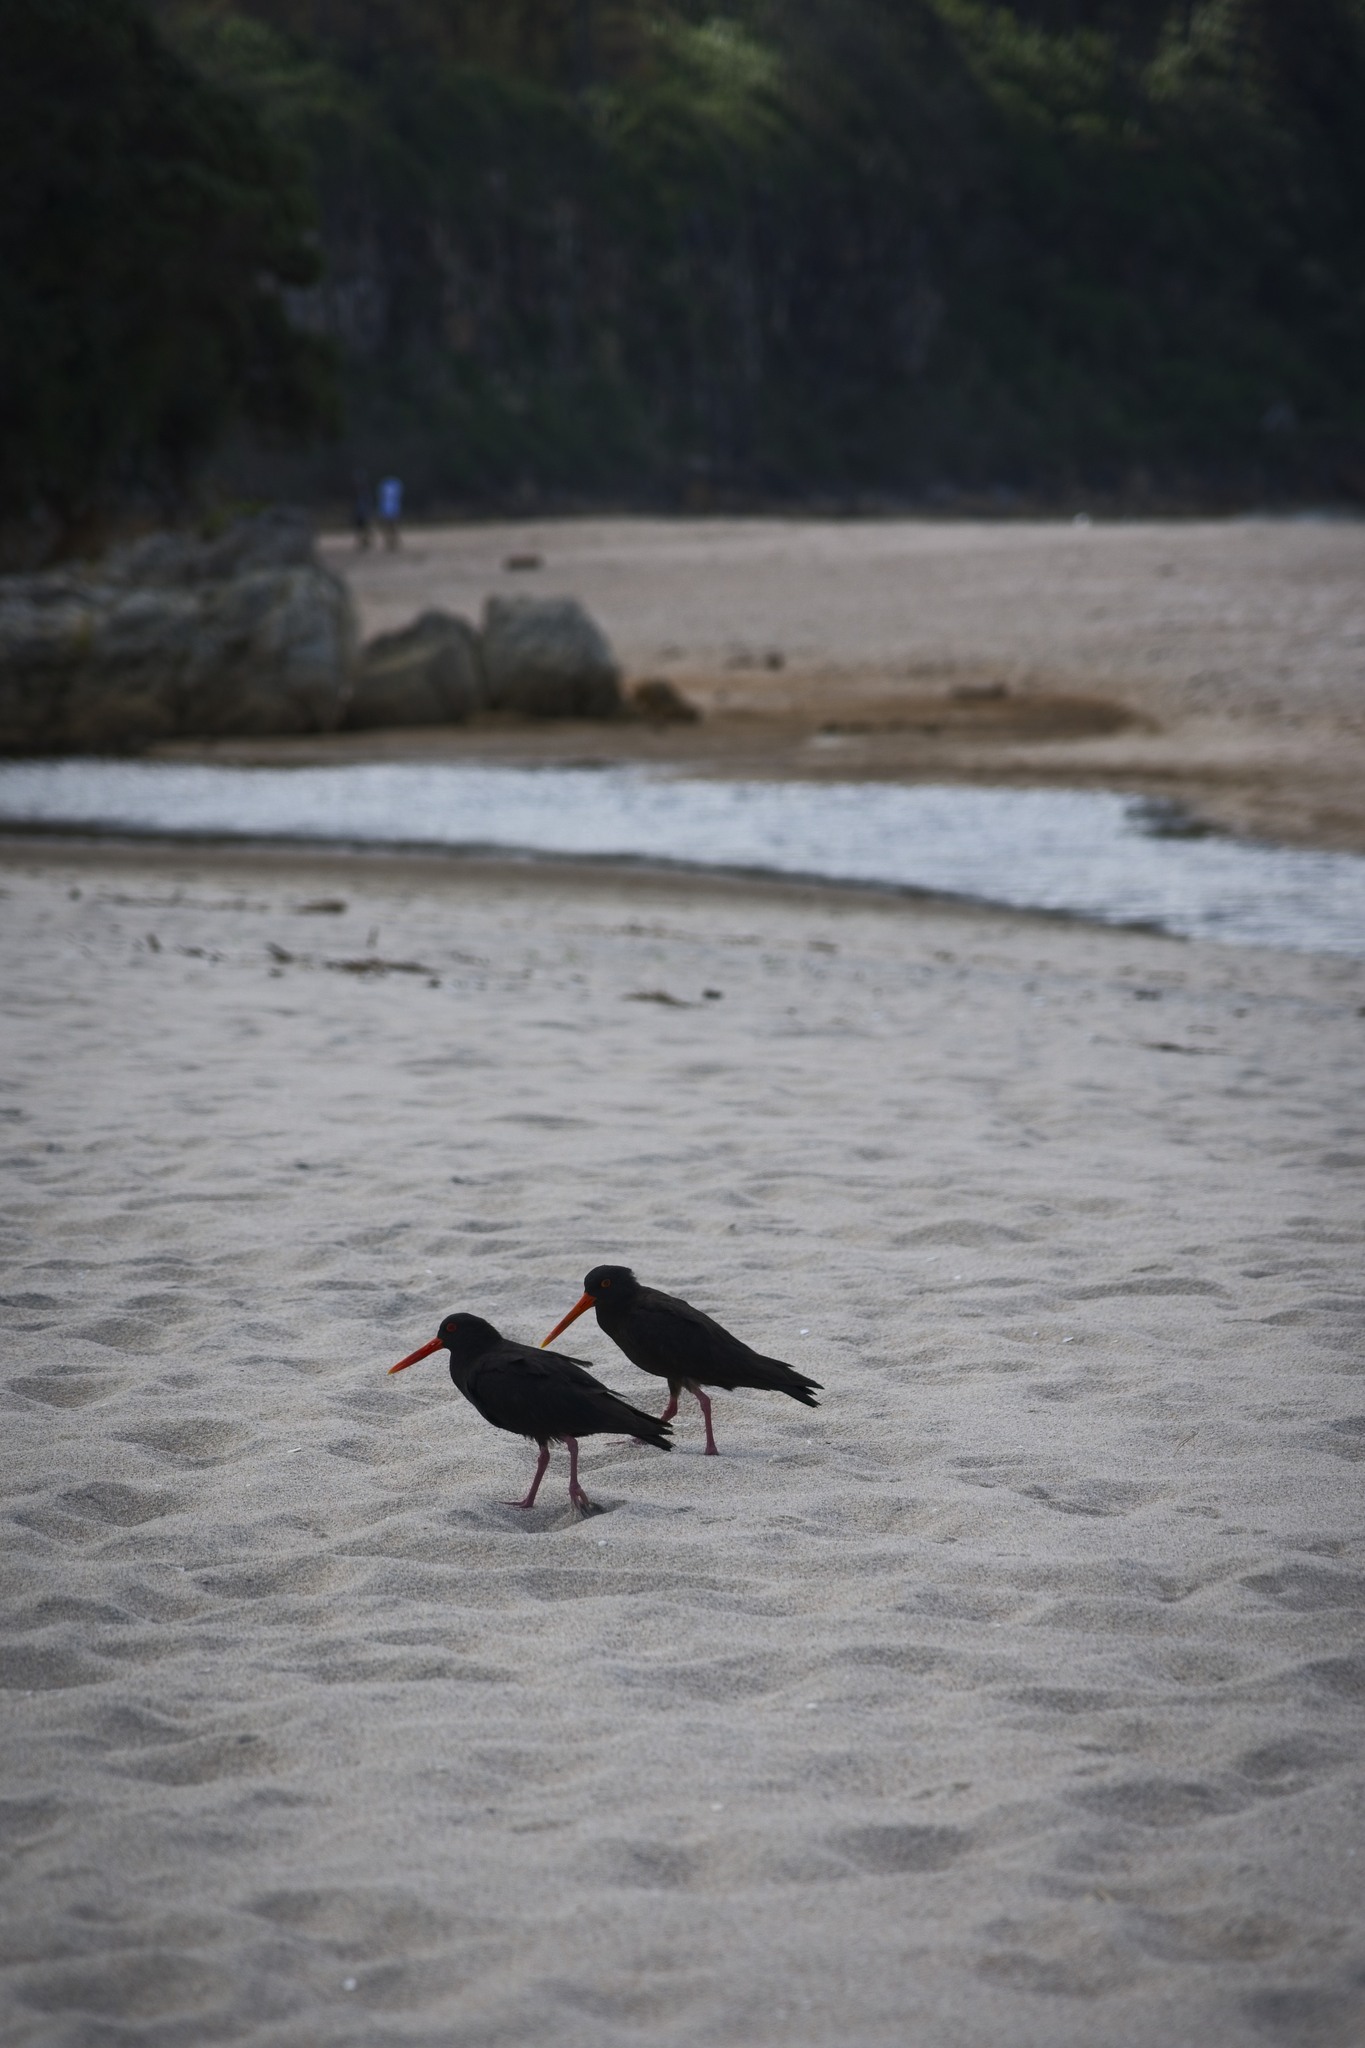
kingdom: Animalia
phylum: Chordata
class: Aves
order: Charadriiformes
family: Haematopodidae
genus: Haematopus
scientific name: Haematopus unicolor
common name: Variable oystercatcher
